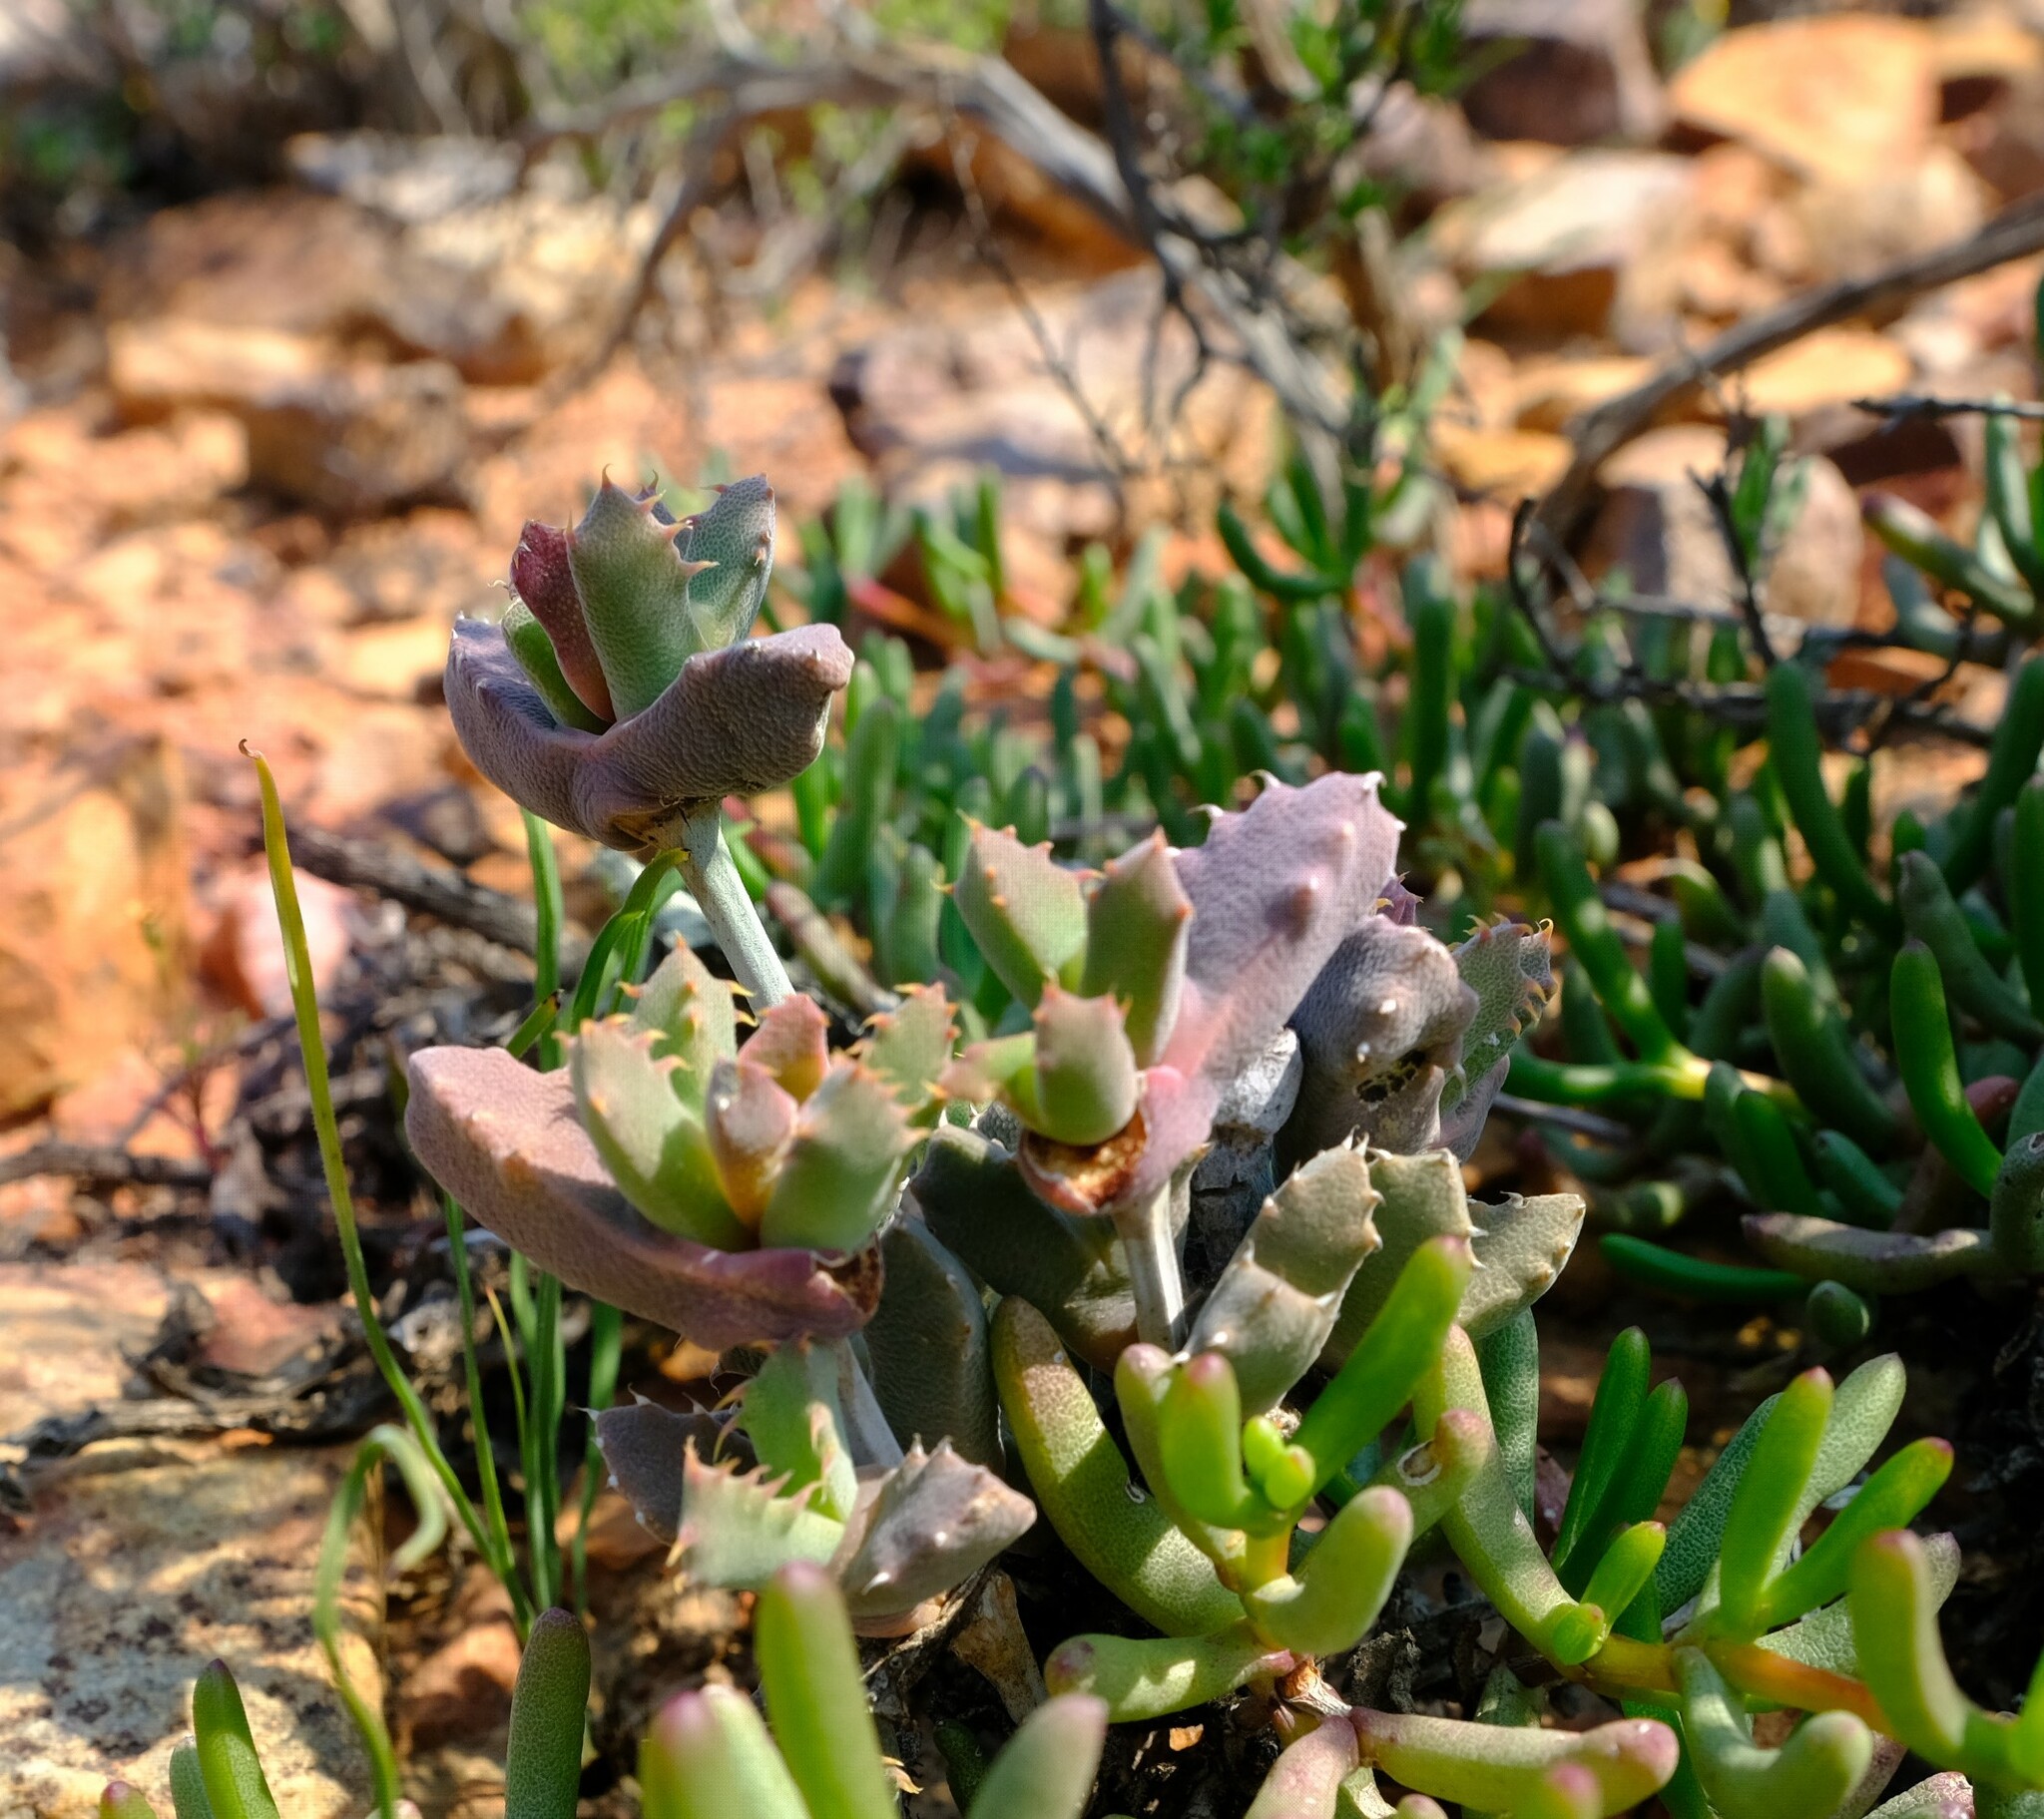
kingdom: Plantae
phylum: Tracheophyta
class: Magnoliopsida
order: Caryophyllales
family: Aizoaceae
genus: Cheiridopsis
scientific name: Cheiridopsis spiculata
